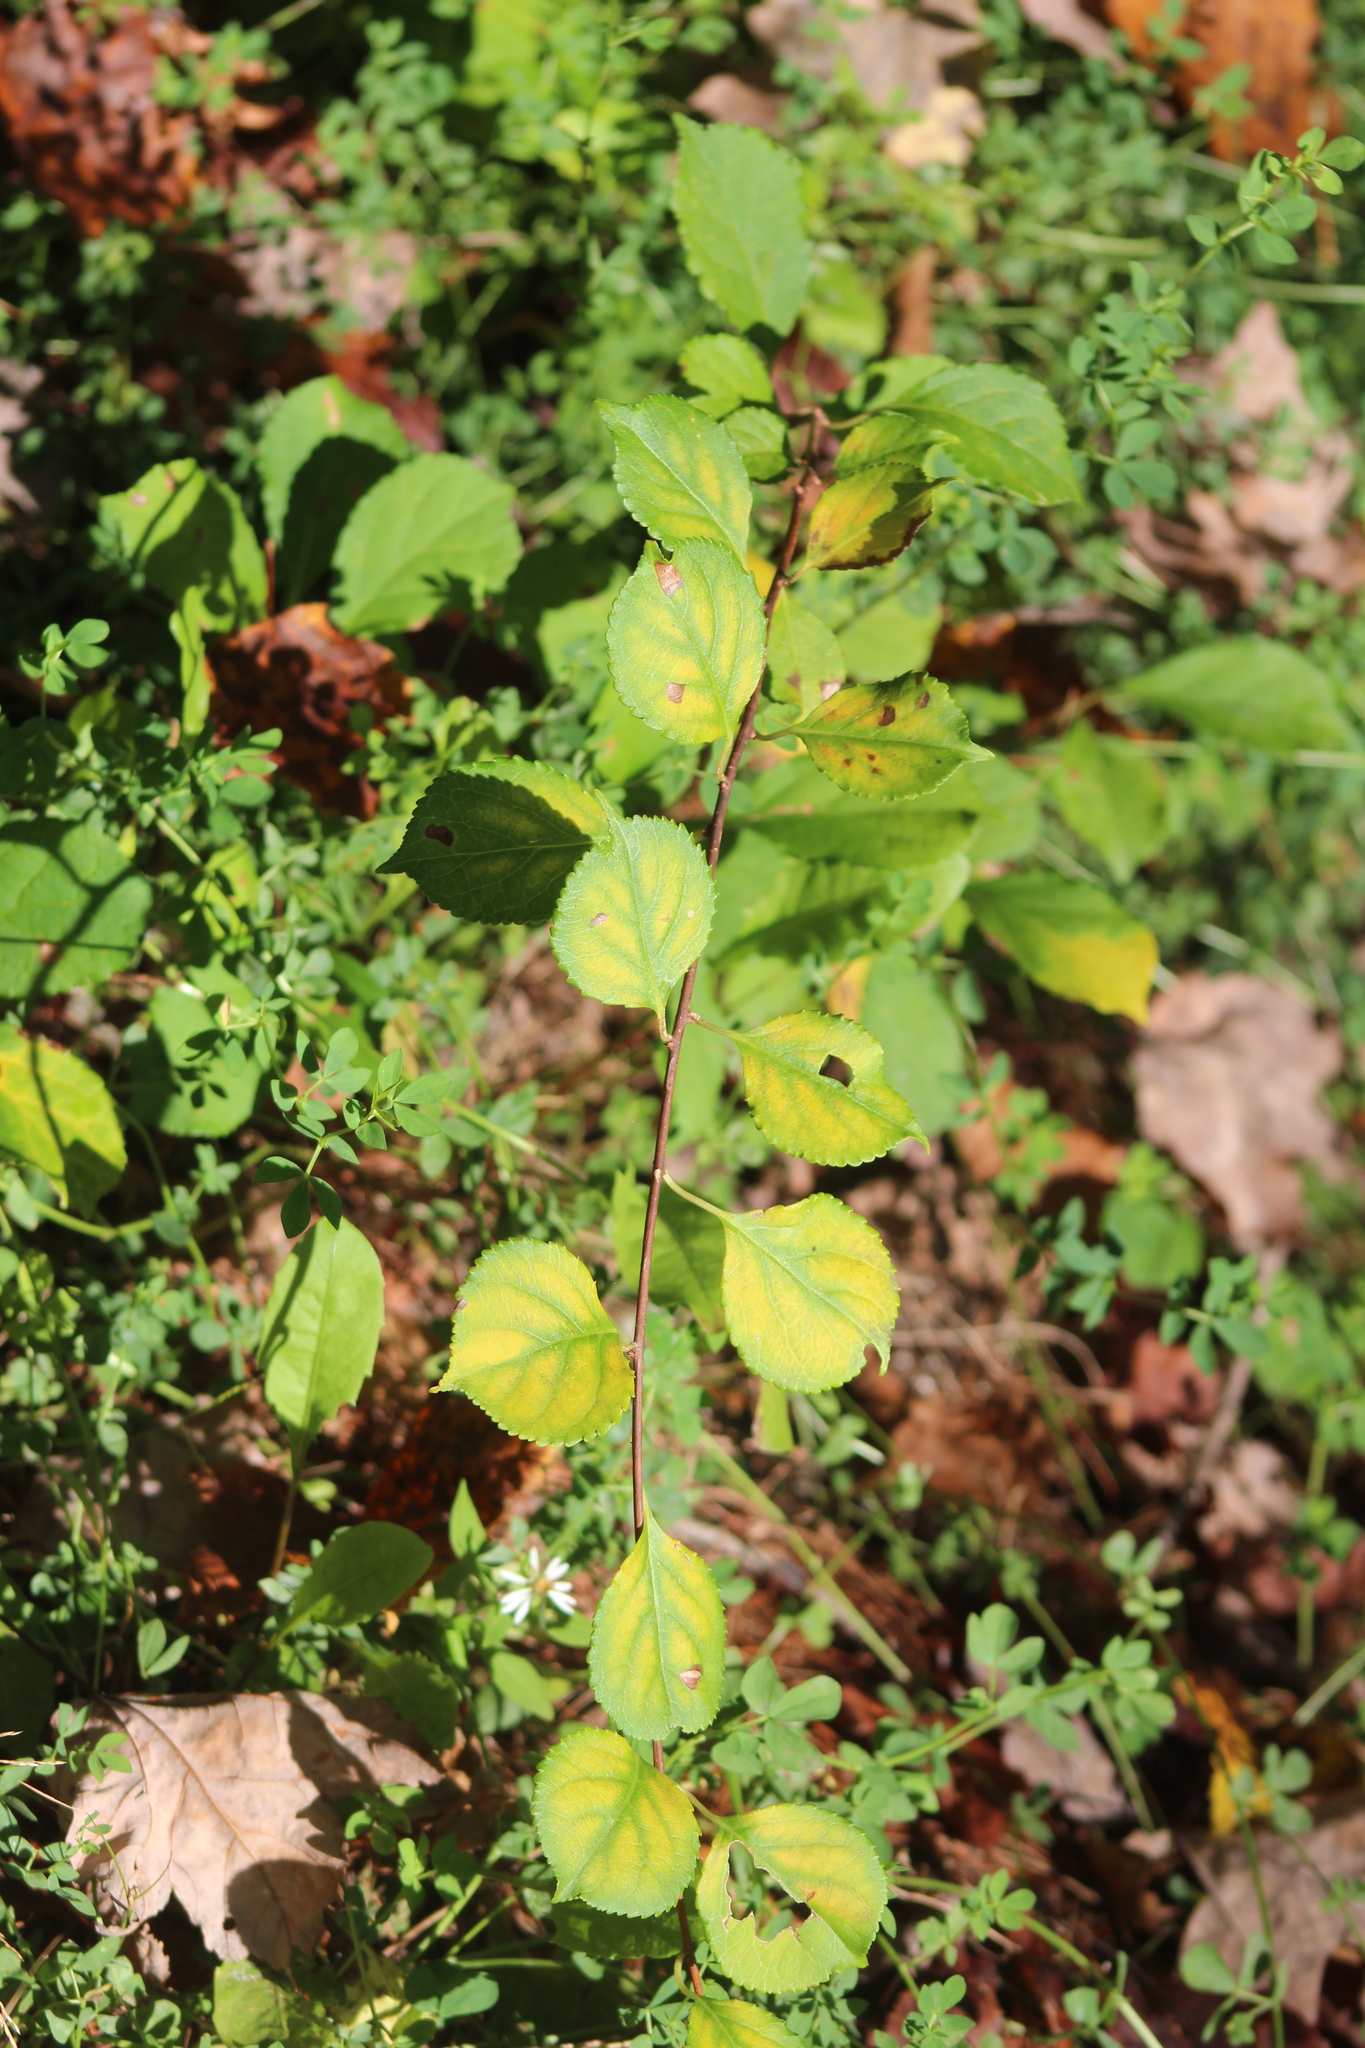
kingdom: Plantae
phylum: Tracheophyta
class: Magnoliopsida
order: Celastrales
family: Celastraceae
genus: Celastrus
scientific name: Celastrus orbiculatus
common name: Oriental bittersweet
